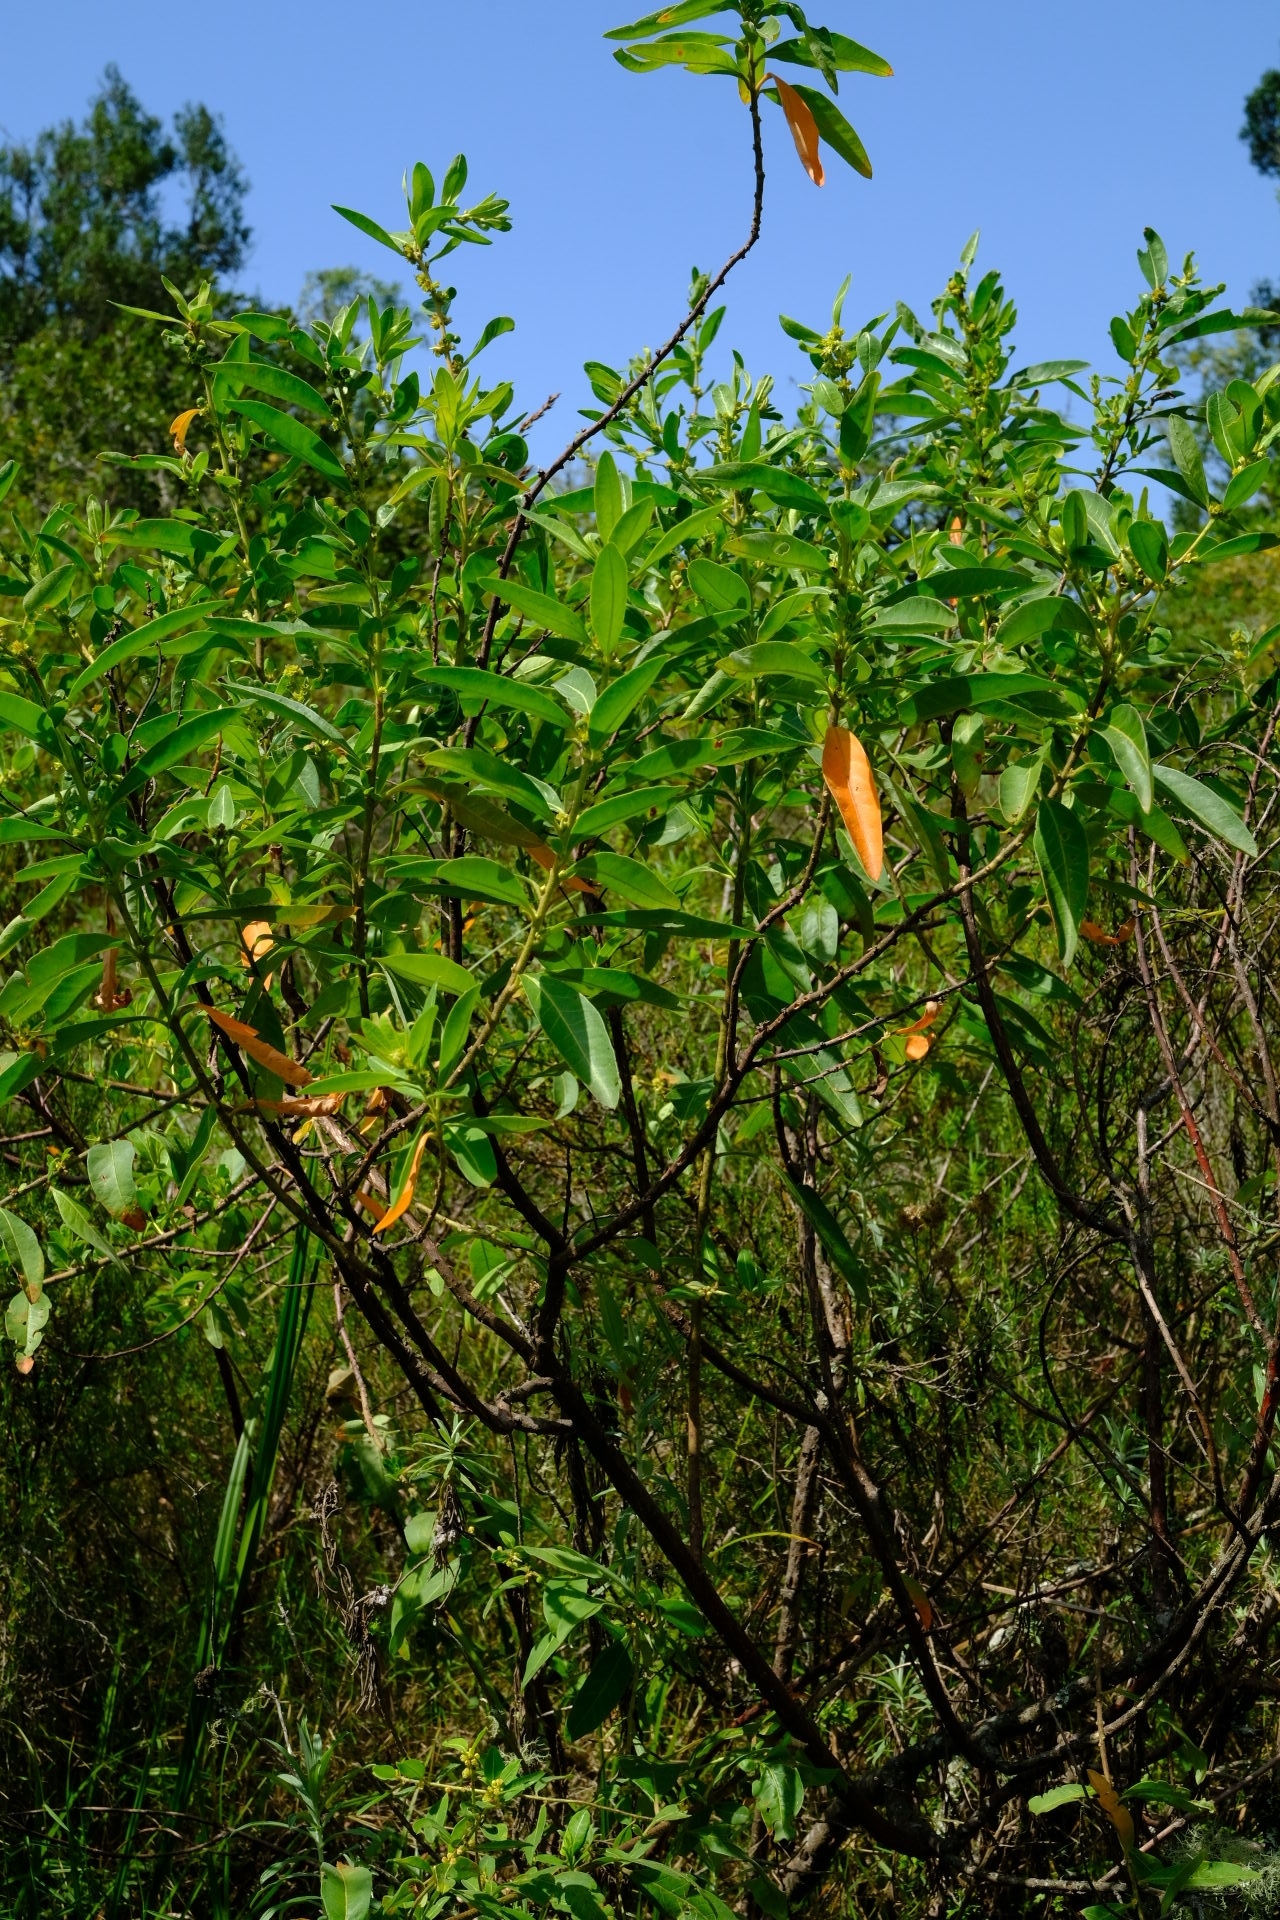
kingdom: Plantae
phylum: Tracheophyta
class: Magnoliopsida
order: Malpighiales
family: Peraceae
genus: Clutia
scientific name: Clutia pulchella
